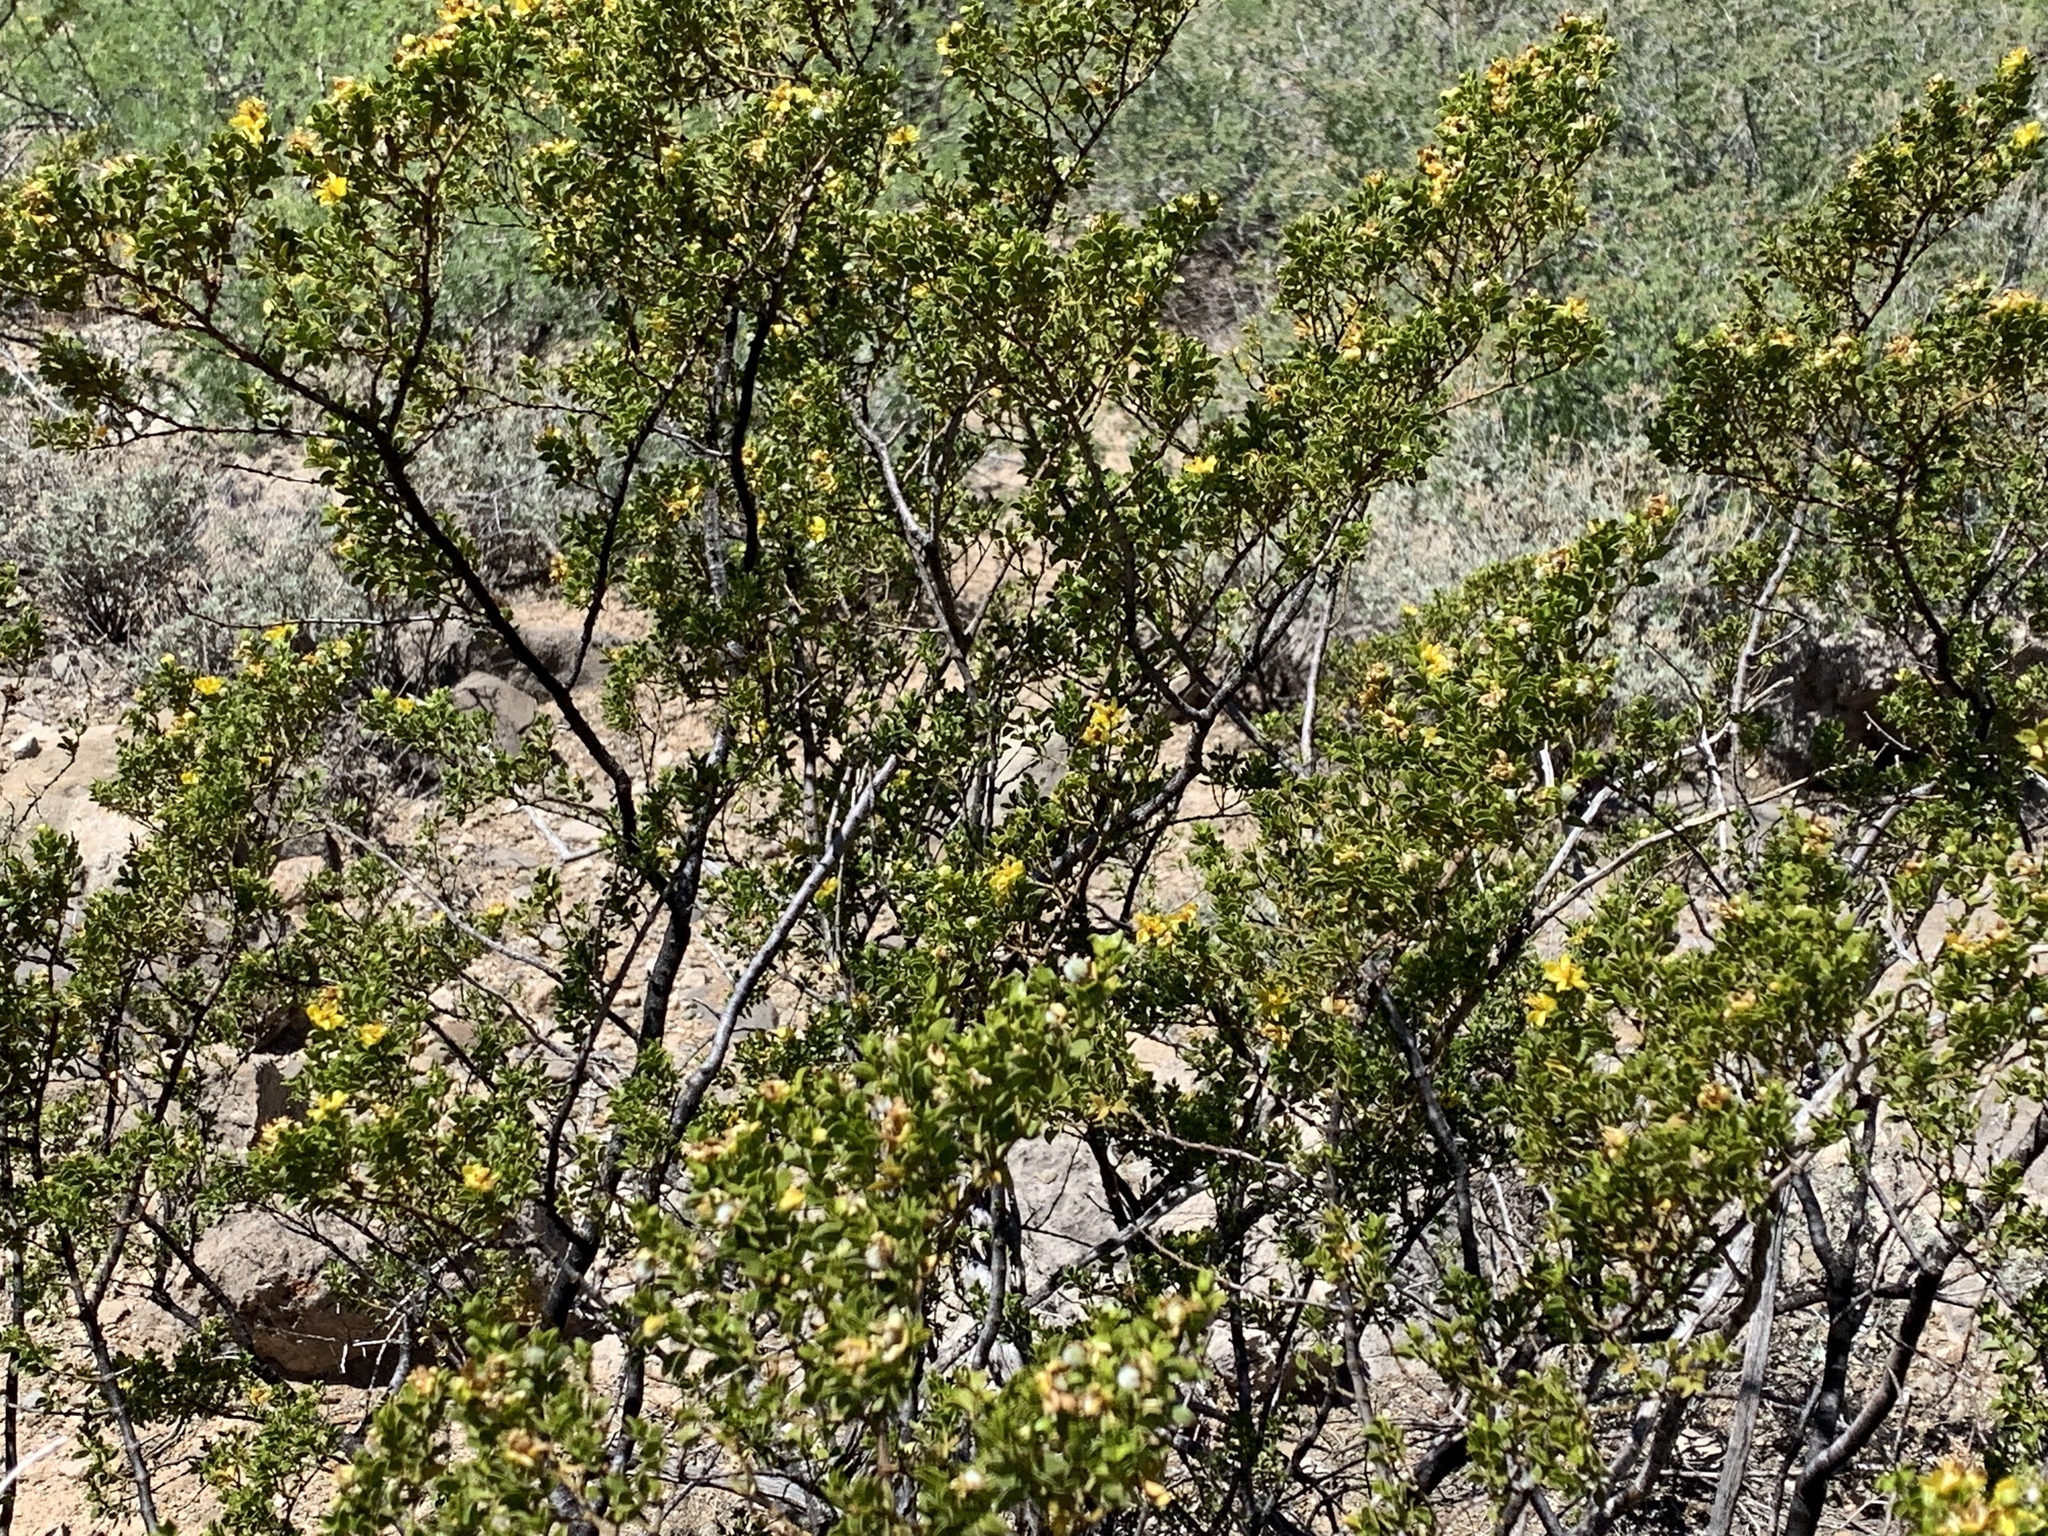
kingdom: Plantae
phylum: Tracheophyta
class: Magnoliopsida
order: Zygophyllales
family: Zygophyllaceae
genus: Larrea
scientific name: Larrea tridentata
